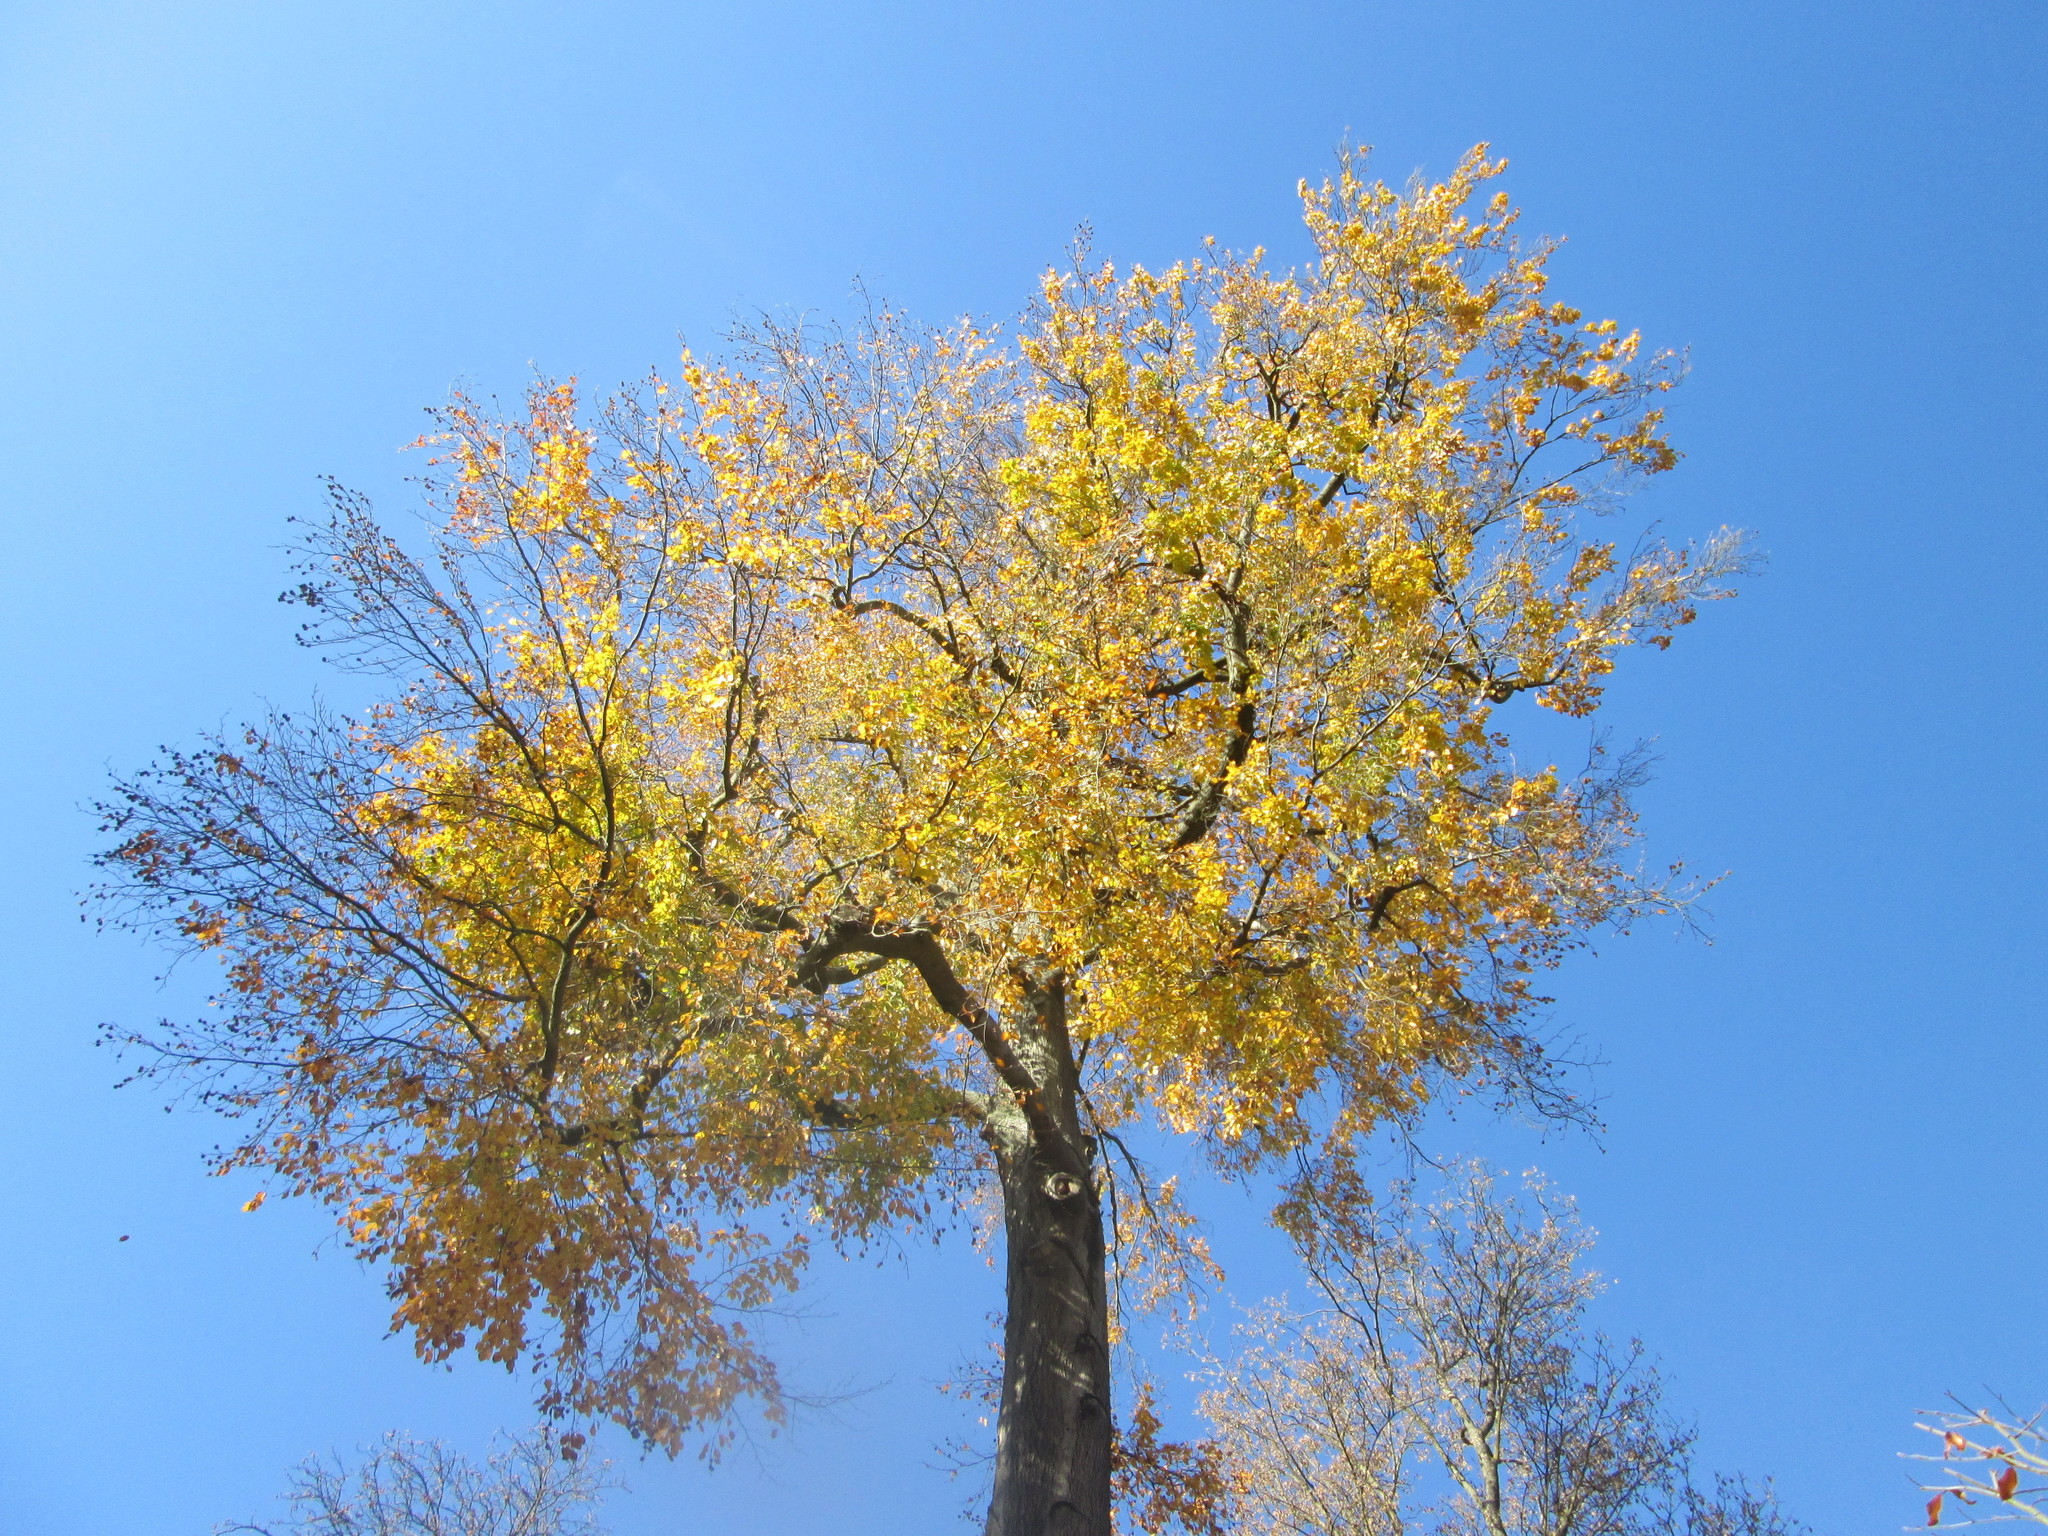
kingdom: Plantae
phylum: Tracheophyta
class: Magnoliopsida
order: Fagales
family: Fagaceae
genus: Fagus
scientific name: Fagus sylvatica
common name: Beech
